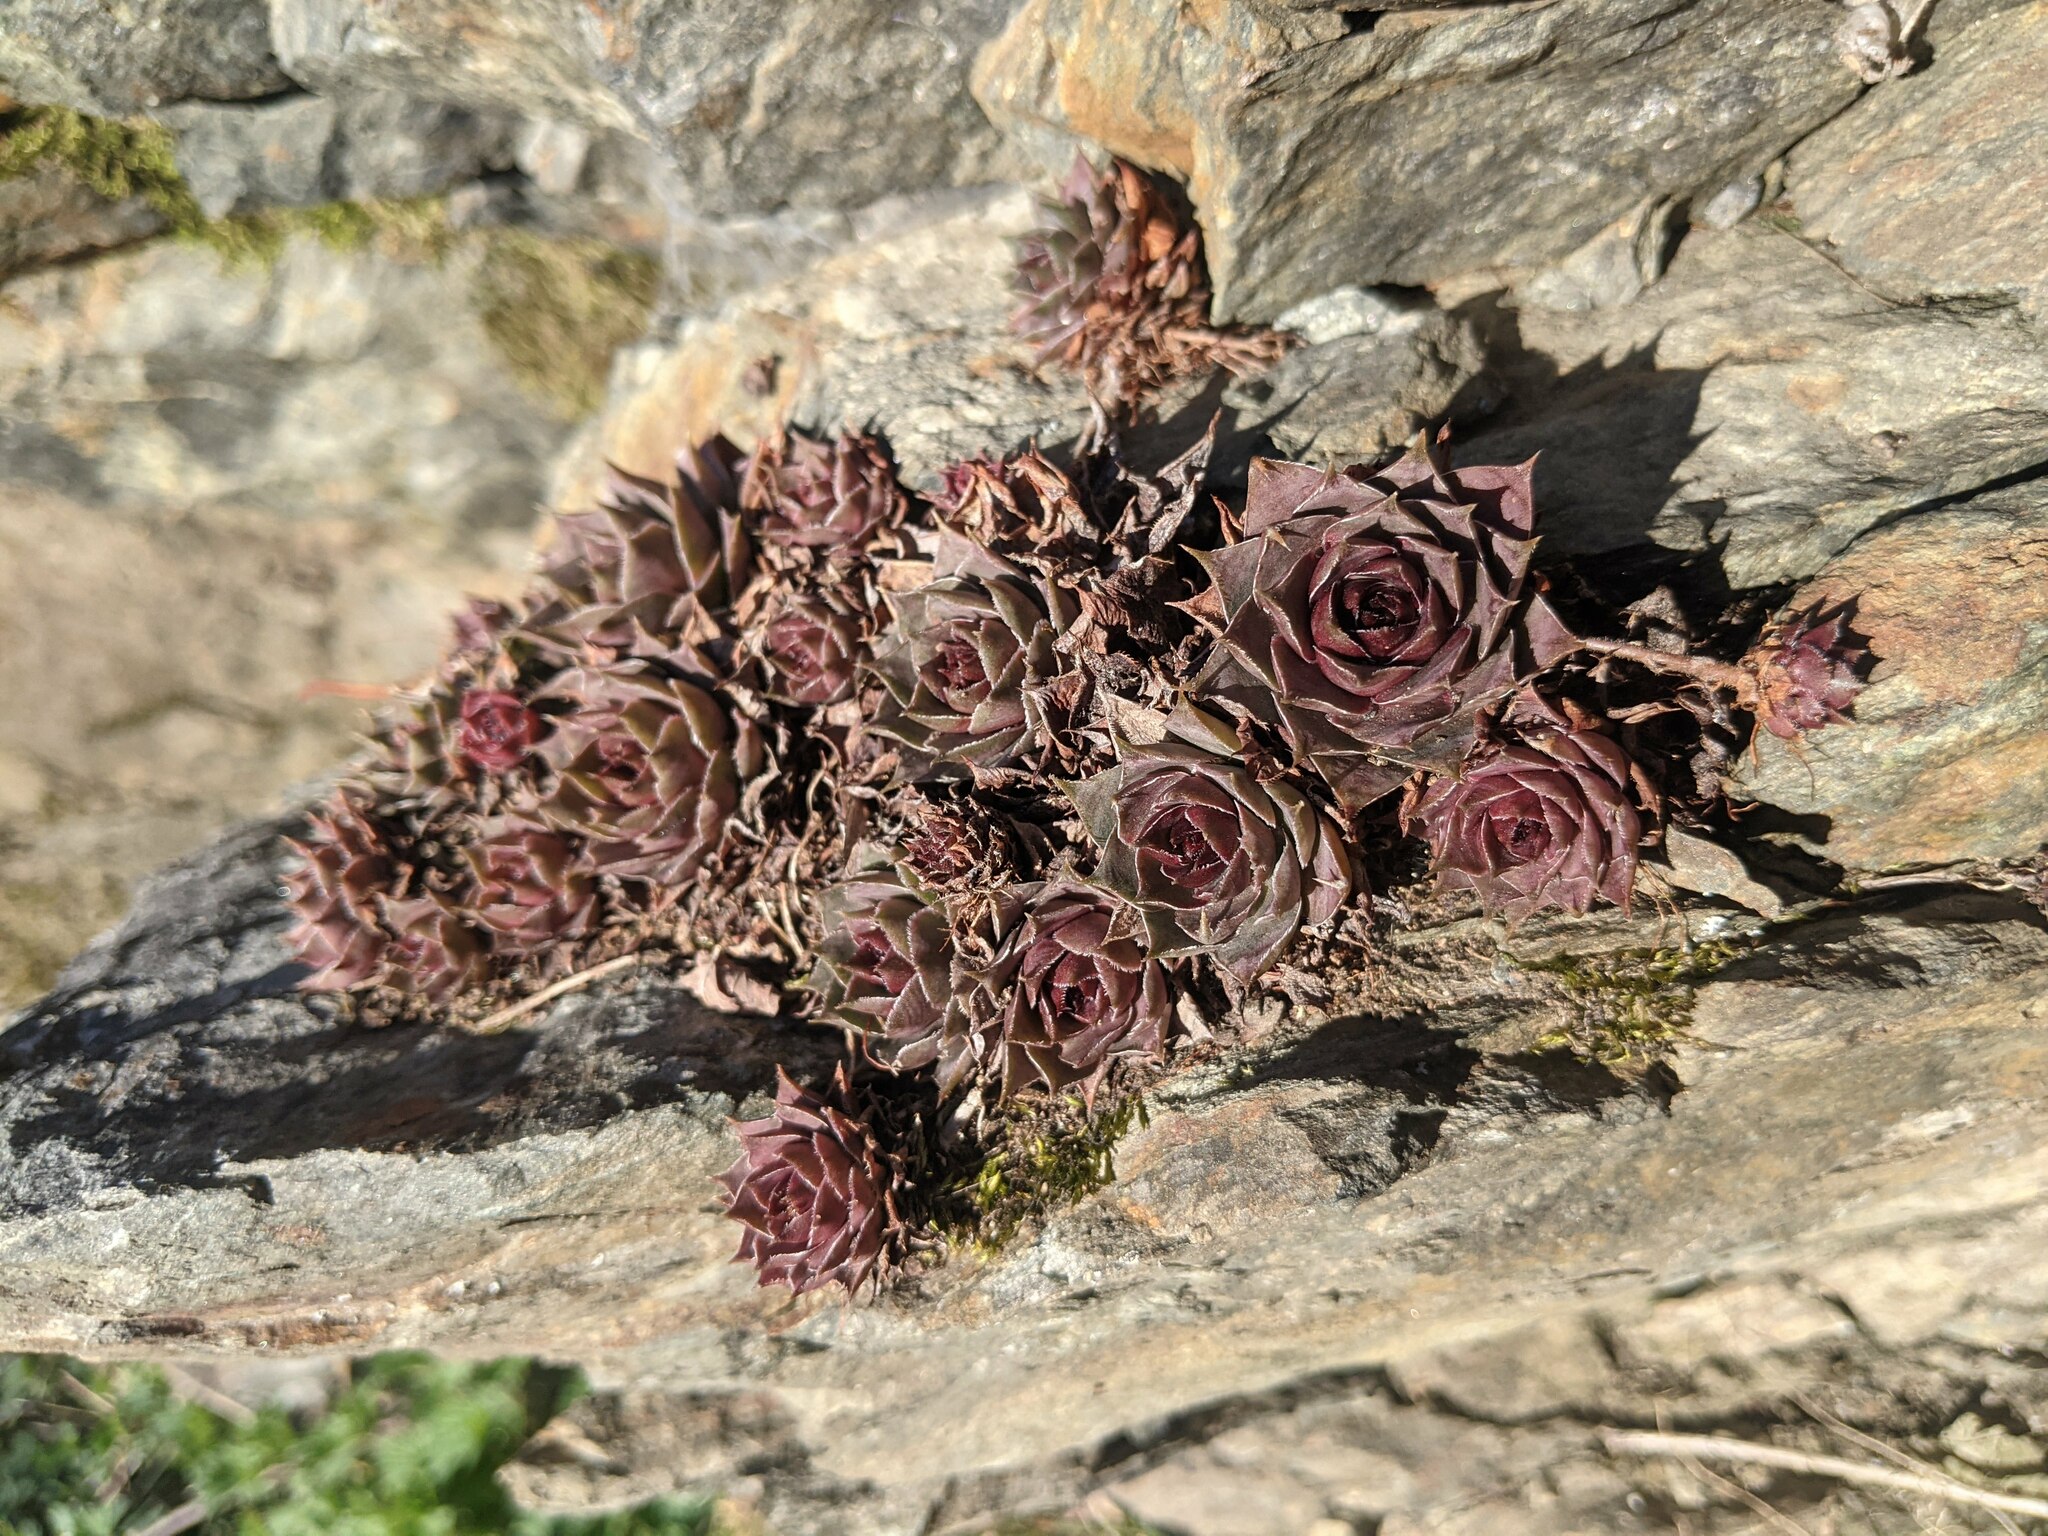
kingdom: Plantae
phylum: Tracheophyta
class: Magnoliopsida
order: Saxifragales
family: Crassulaceae
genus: Sempervivum
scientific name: Sempervivum tectorum
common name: House-leek
